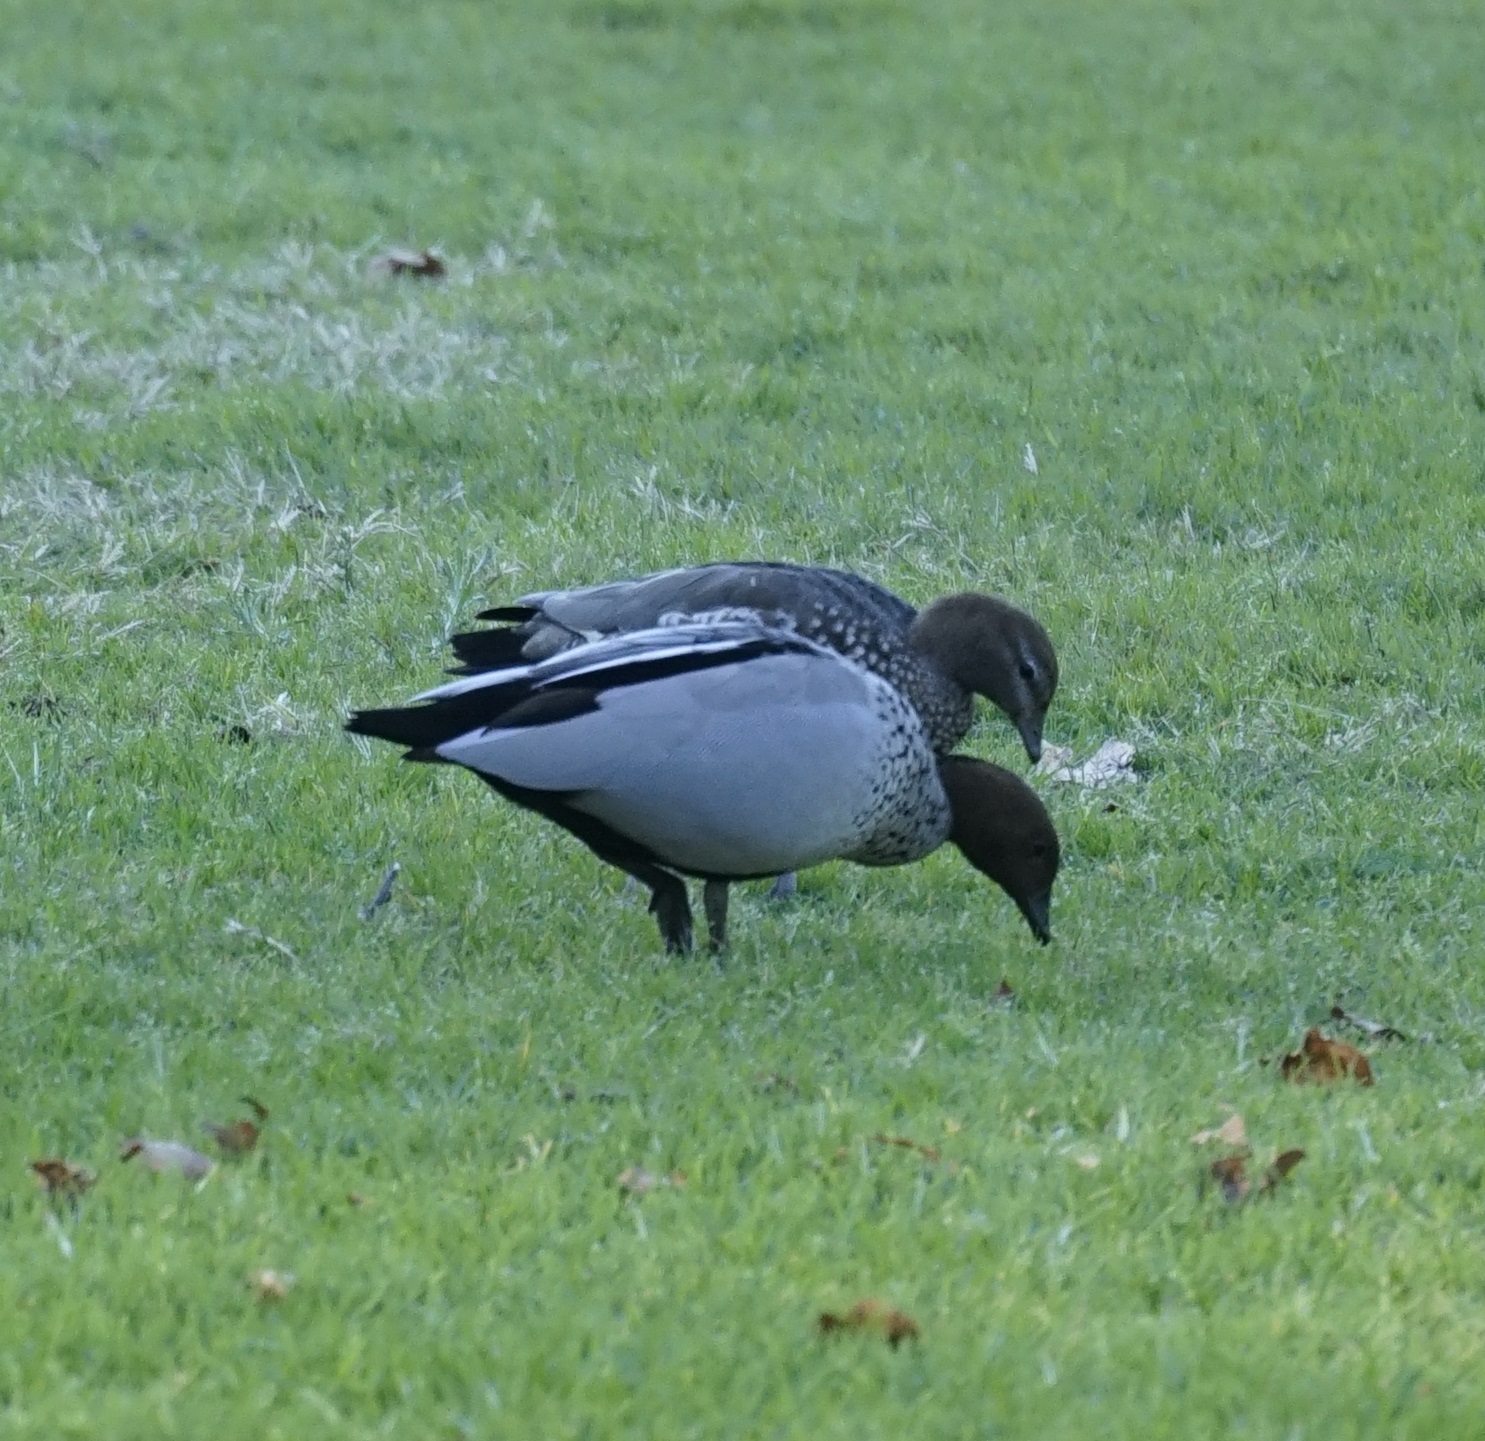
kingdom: Animalia
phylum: Chordata
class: Aves
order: Anseriformes
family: Anatidae
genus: Chenonetta
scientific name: Chenonetta jubata
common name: Maned duck
